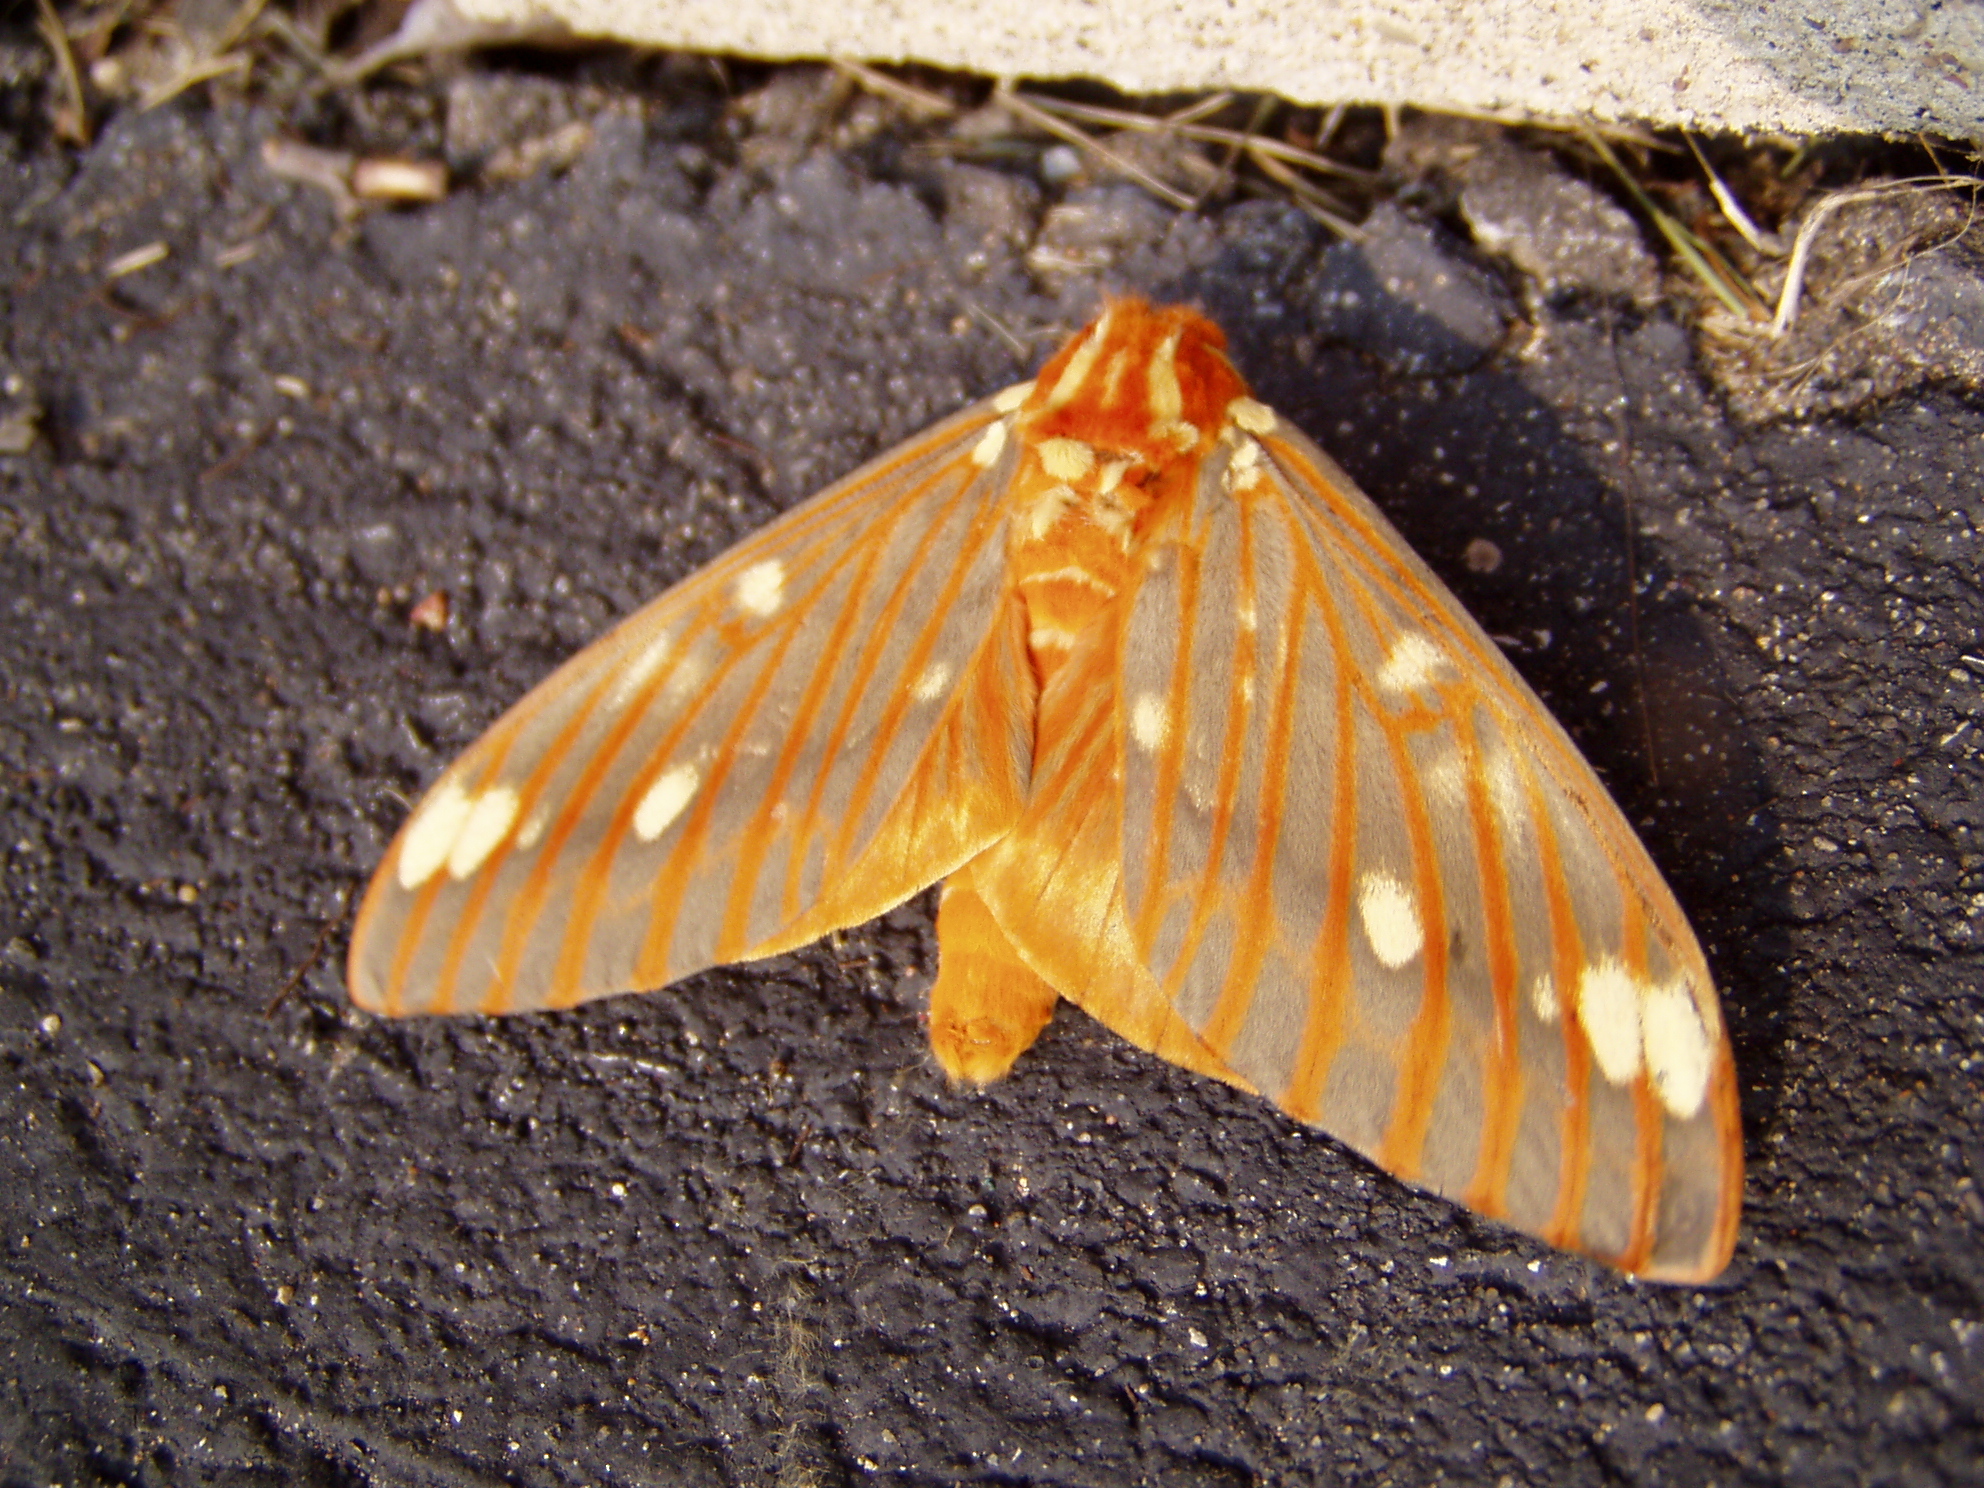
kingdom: Animalia
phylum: Arthropoda
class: Insecta
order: Lepidoptera
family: Saturniidae
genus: Citheronia
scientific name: Citheronia regalis
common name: Hickory horned devil
